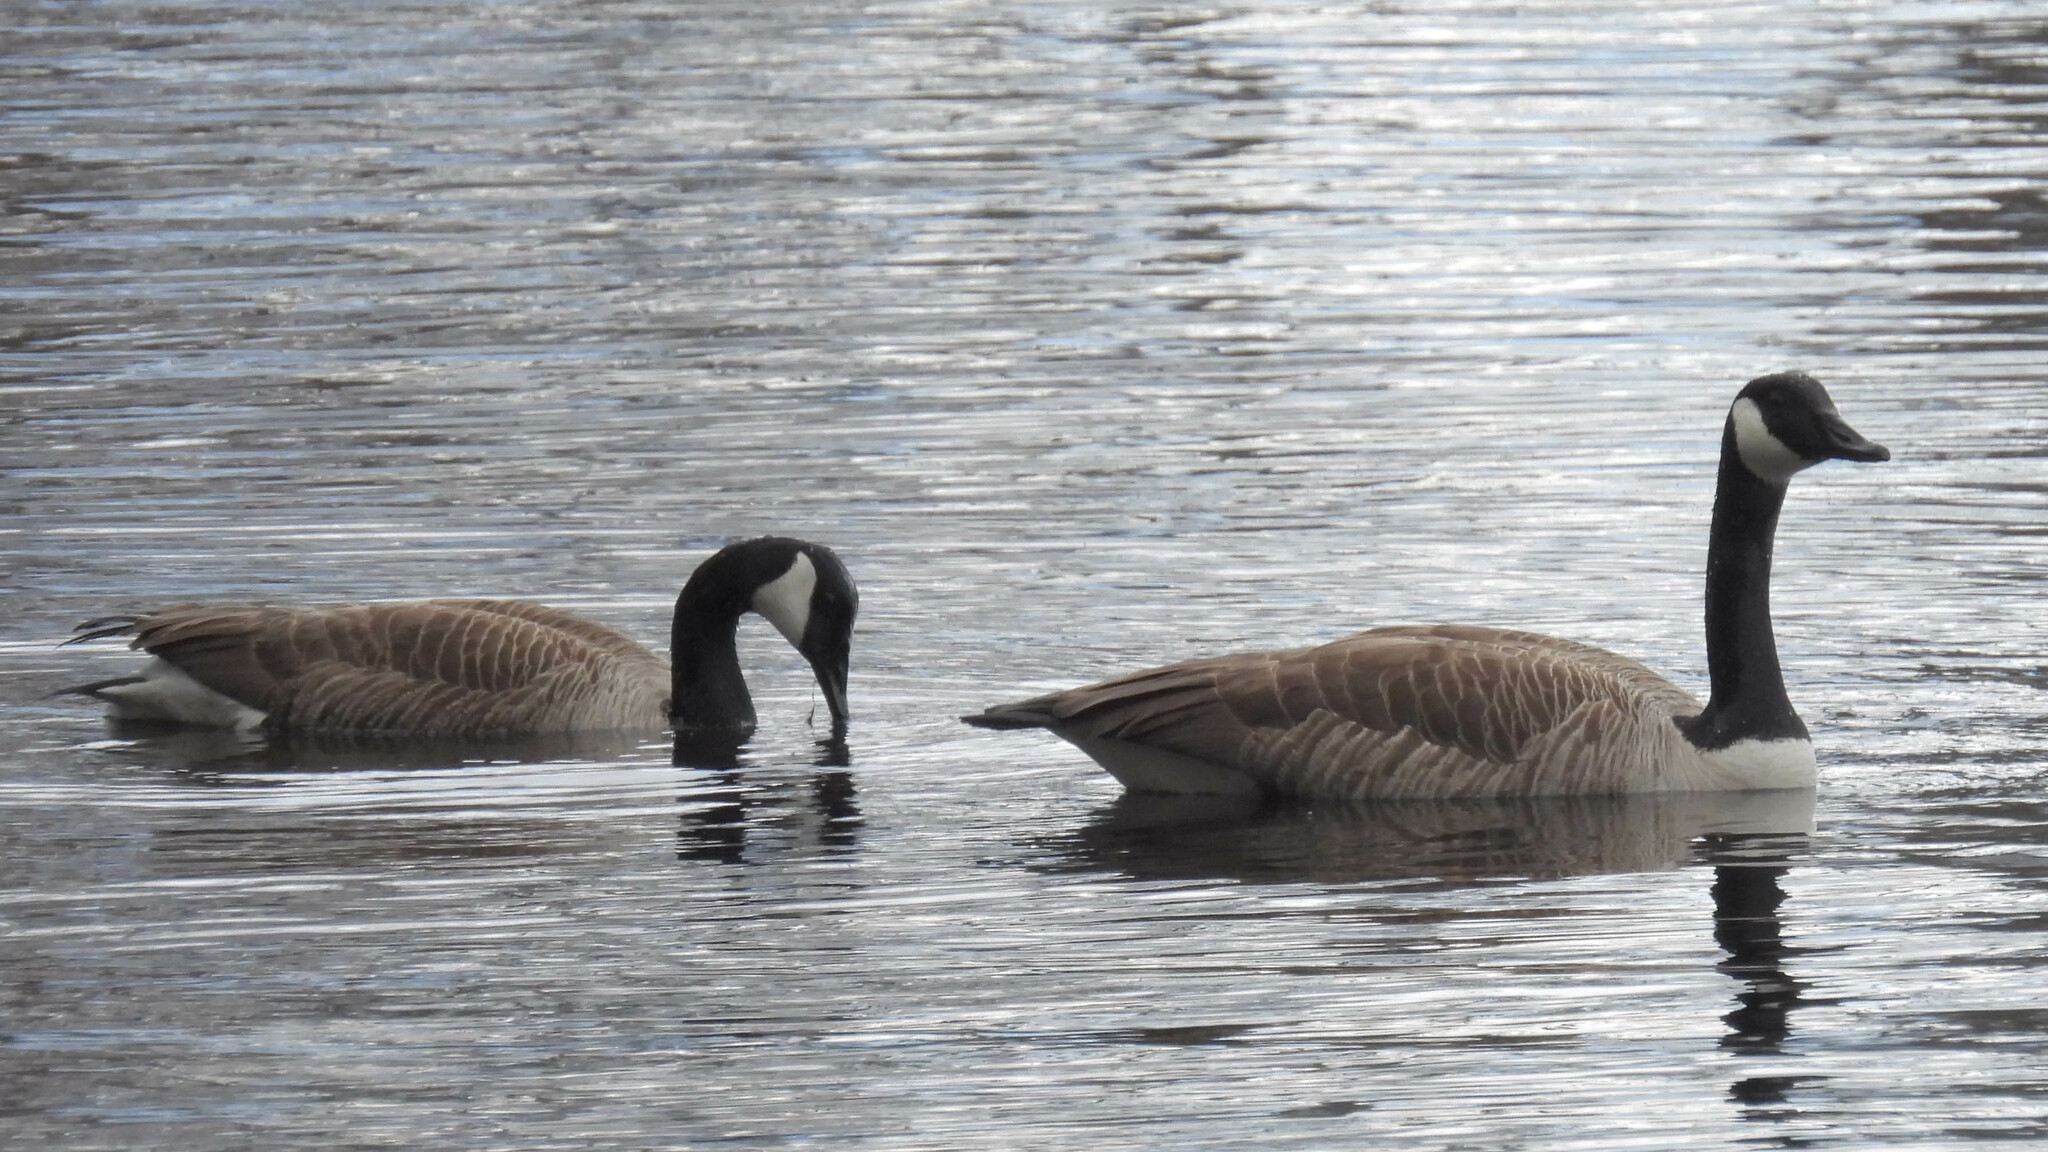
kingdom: Animalia
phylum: Chordata
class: Aves
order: Anseriformes
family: Anatidae
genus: Branta
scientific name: Branta canadensis
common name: Canada goose
